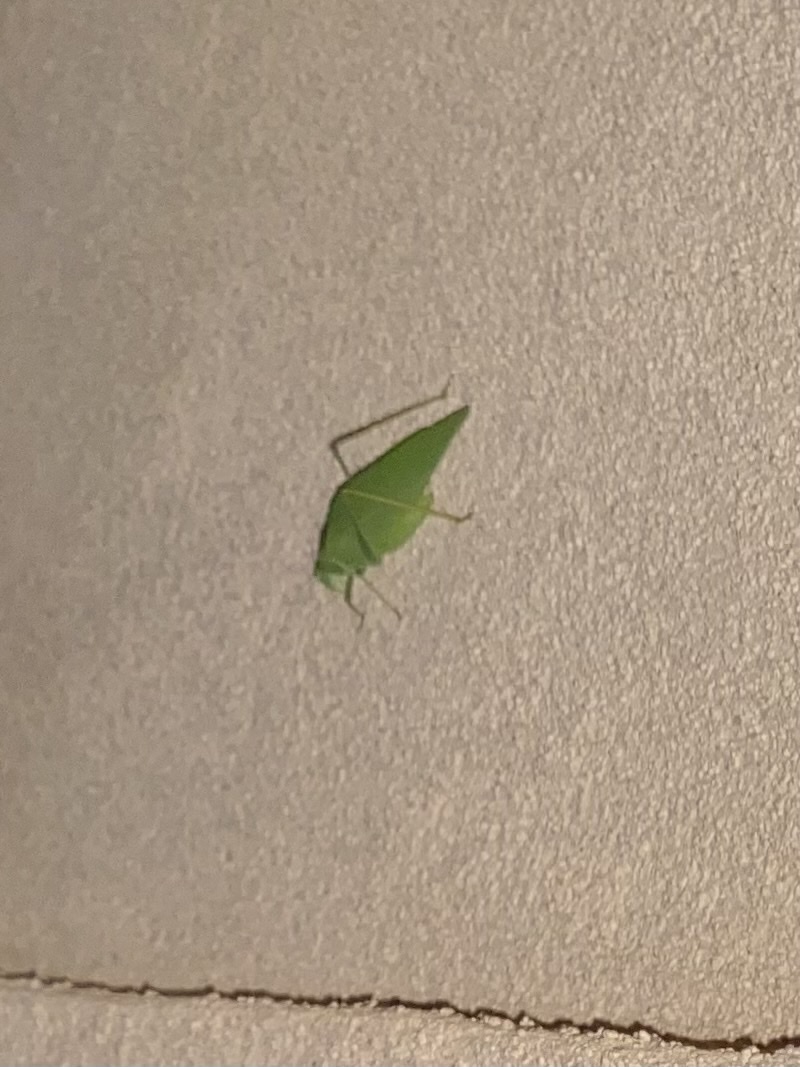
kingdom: Animalia
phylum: Arthropoda
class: Insecta
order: Orthoptera
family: Tettigoniidae
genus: Microcentrum
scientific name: Microcentrum rhombifolium
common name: Broad-winged katydid
